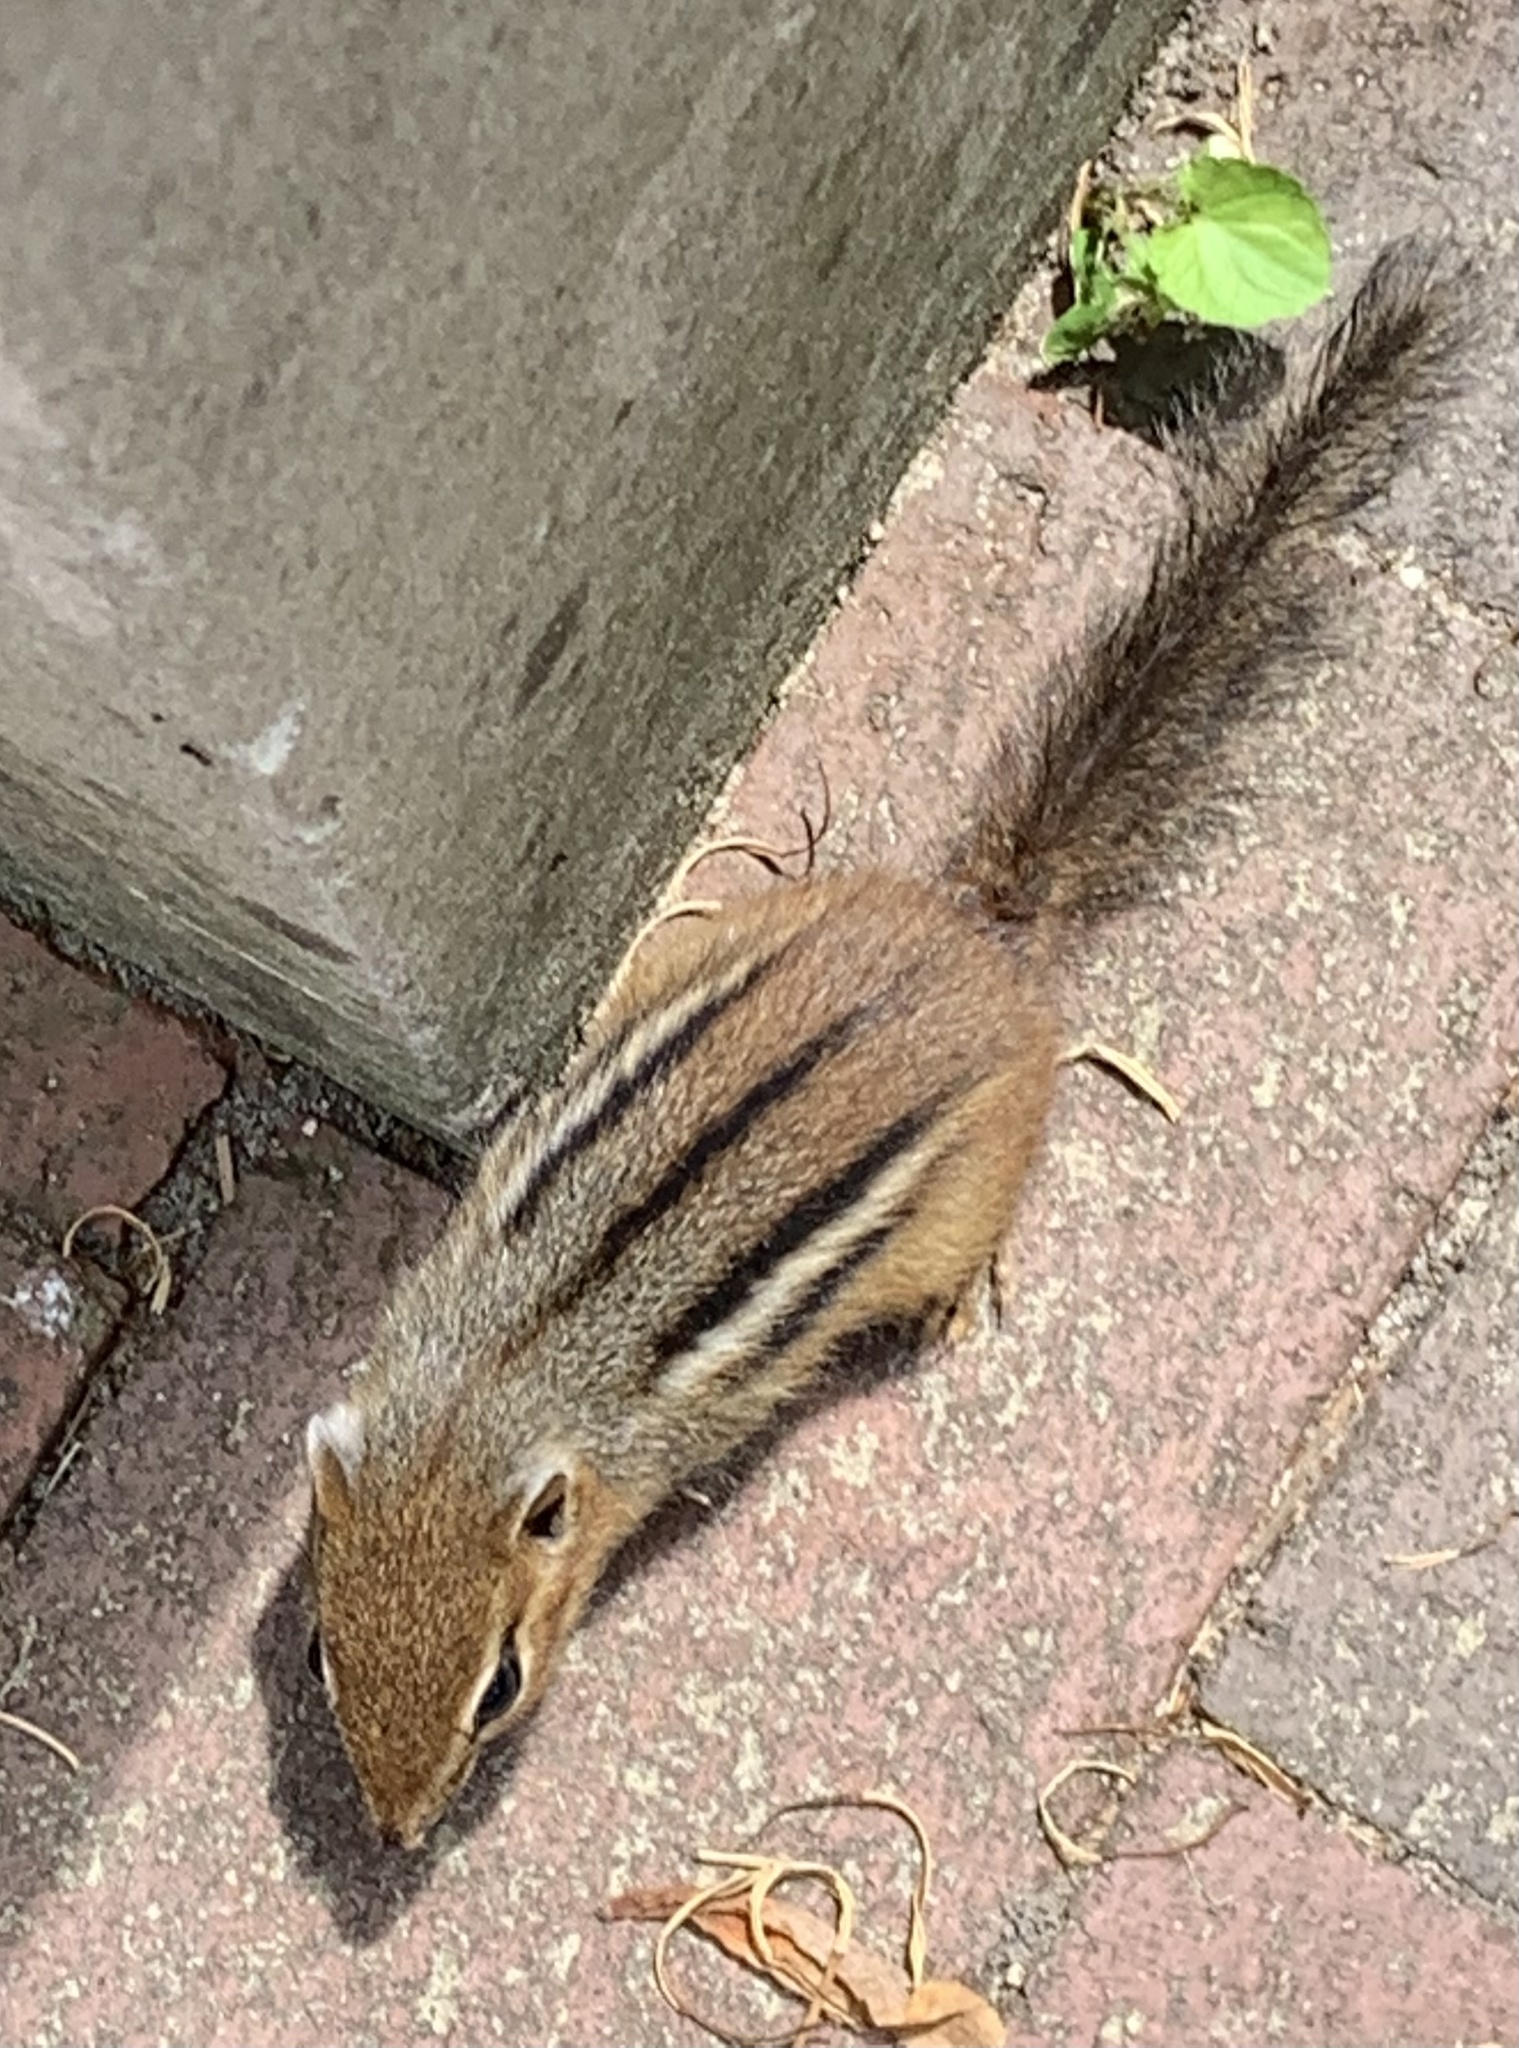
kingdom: Animalia
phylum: Chordata
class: Mammalia
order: Rodentia
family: Sciuridae
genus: Tamias
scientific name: Tamias striatus
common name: Eastern chipmunk
